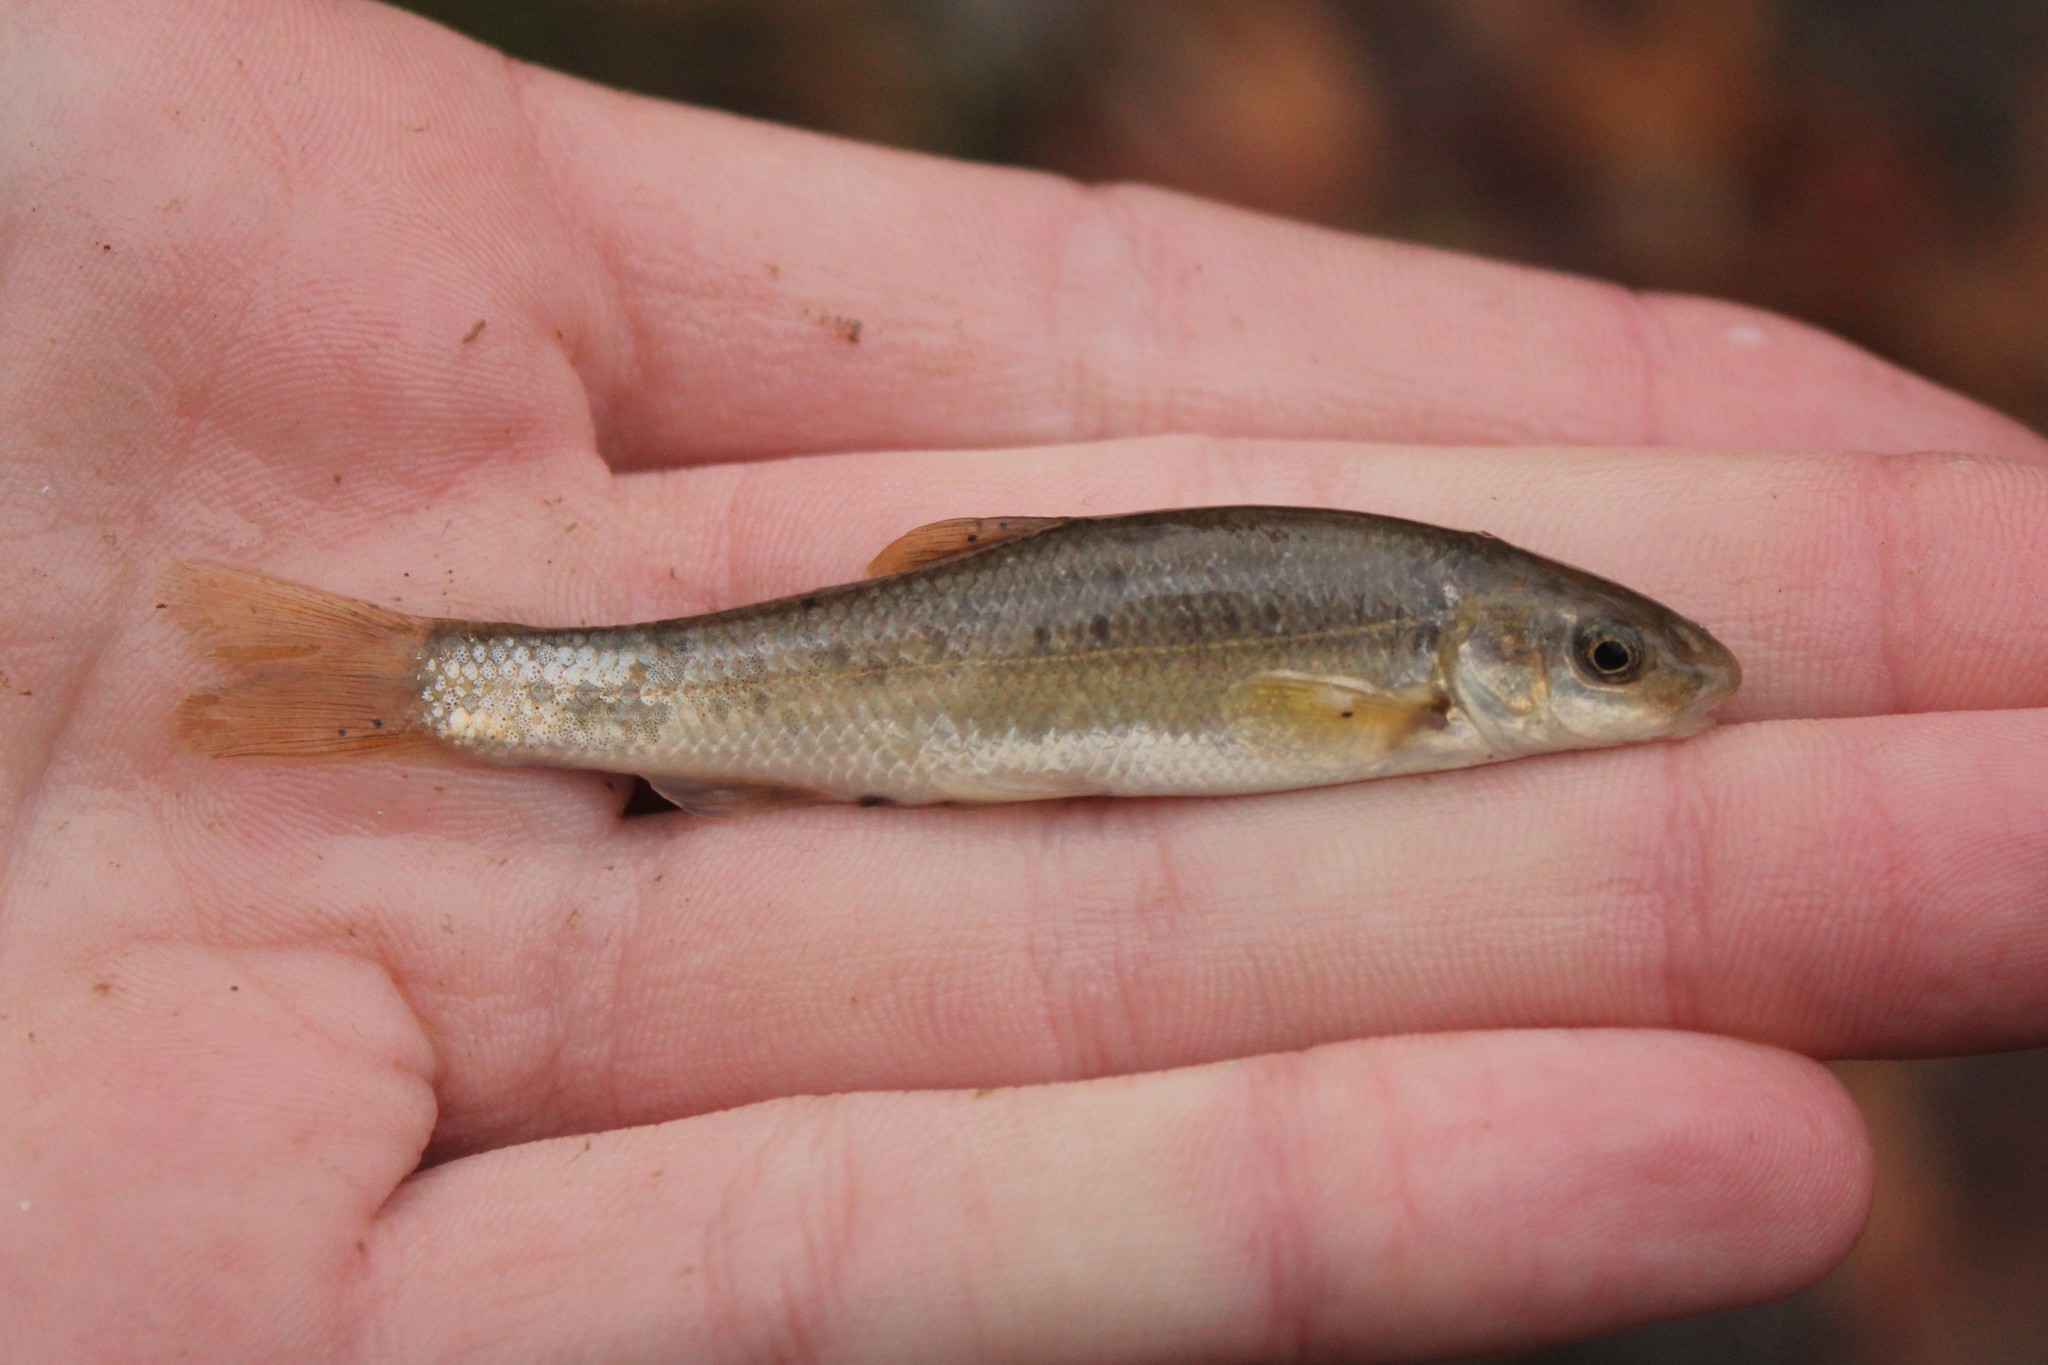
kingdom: Animalia
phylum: Chordata
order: Cypriniformes
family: Cyprinidae
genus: Campostoma
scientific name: Campostoma anomalum
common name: Central stoneroller
